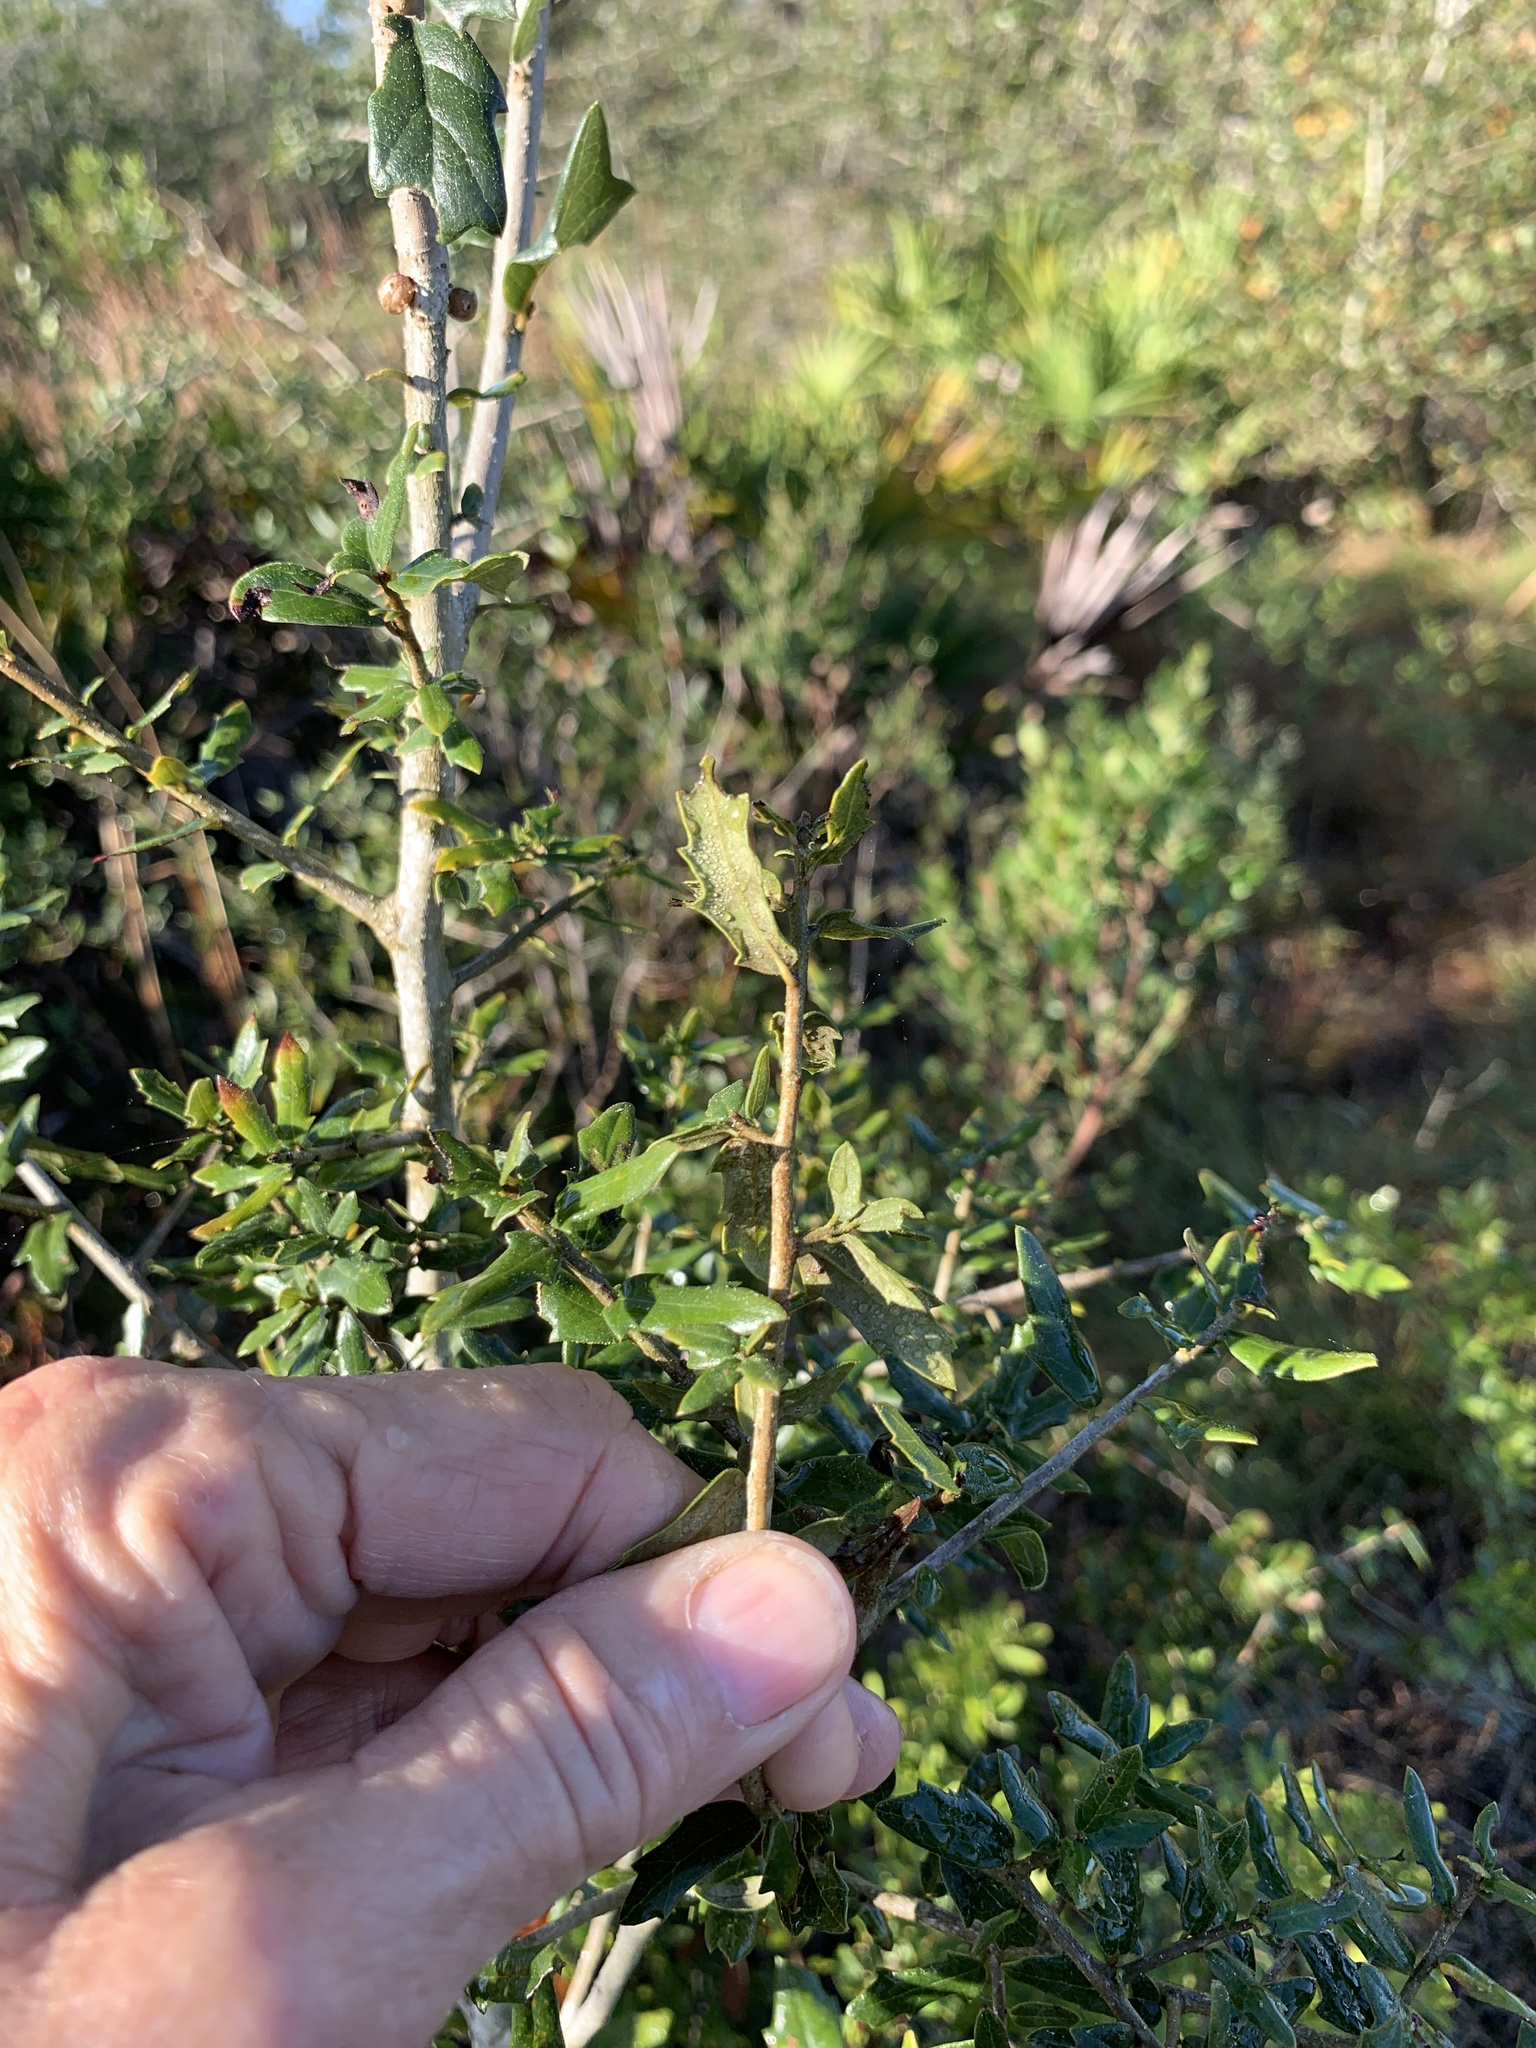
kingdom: Plantae
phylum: Tracheophyta
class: Magnoliopsida
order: Fagales
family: Fagaceae
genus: Quercus
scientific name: Quercus virginiana
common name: Southern live oak
